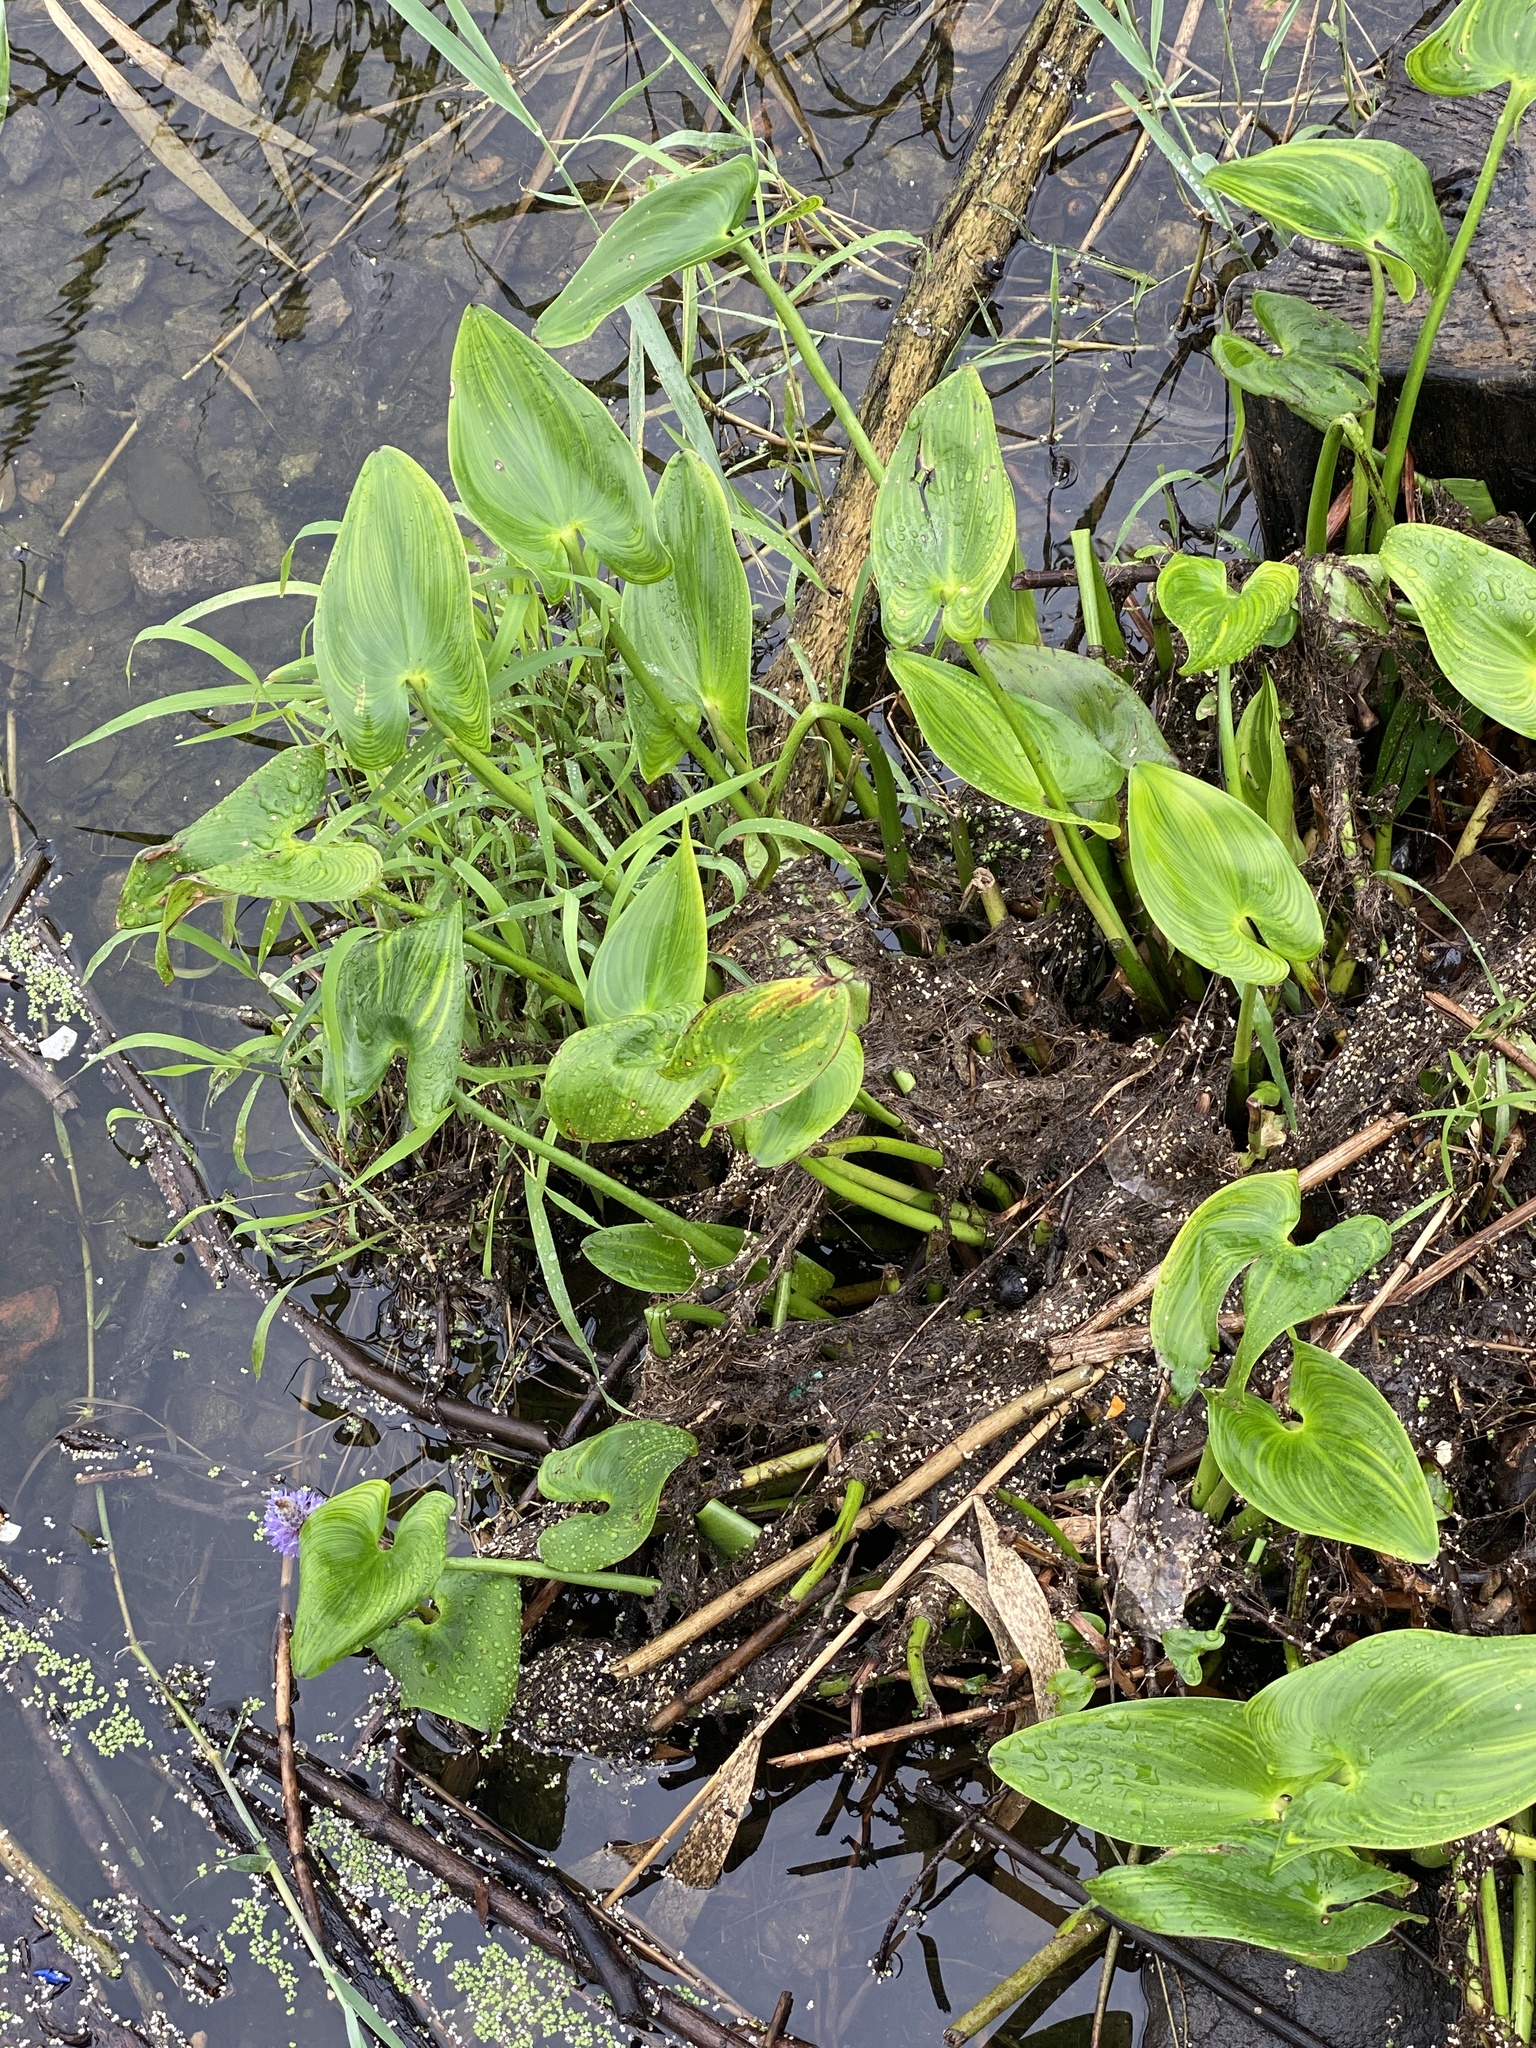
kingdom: Plantae
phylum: Tracheophyta
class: Liliopsida
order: Commelinales
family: Pontederiaceae
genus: Pontederia
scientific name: Pontederia cordata
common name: Pickerelweed
